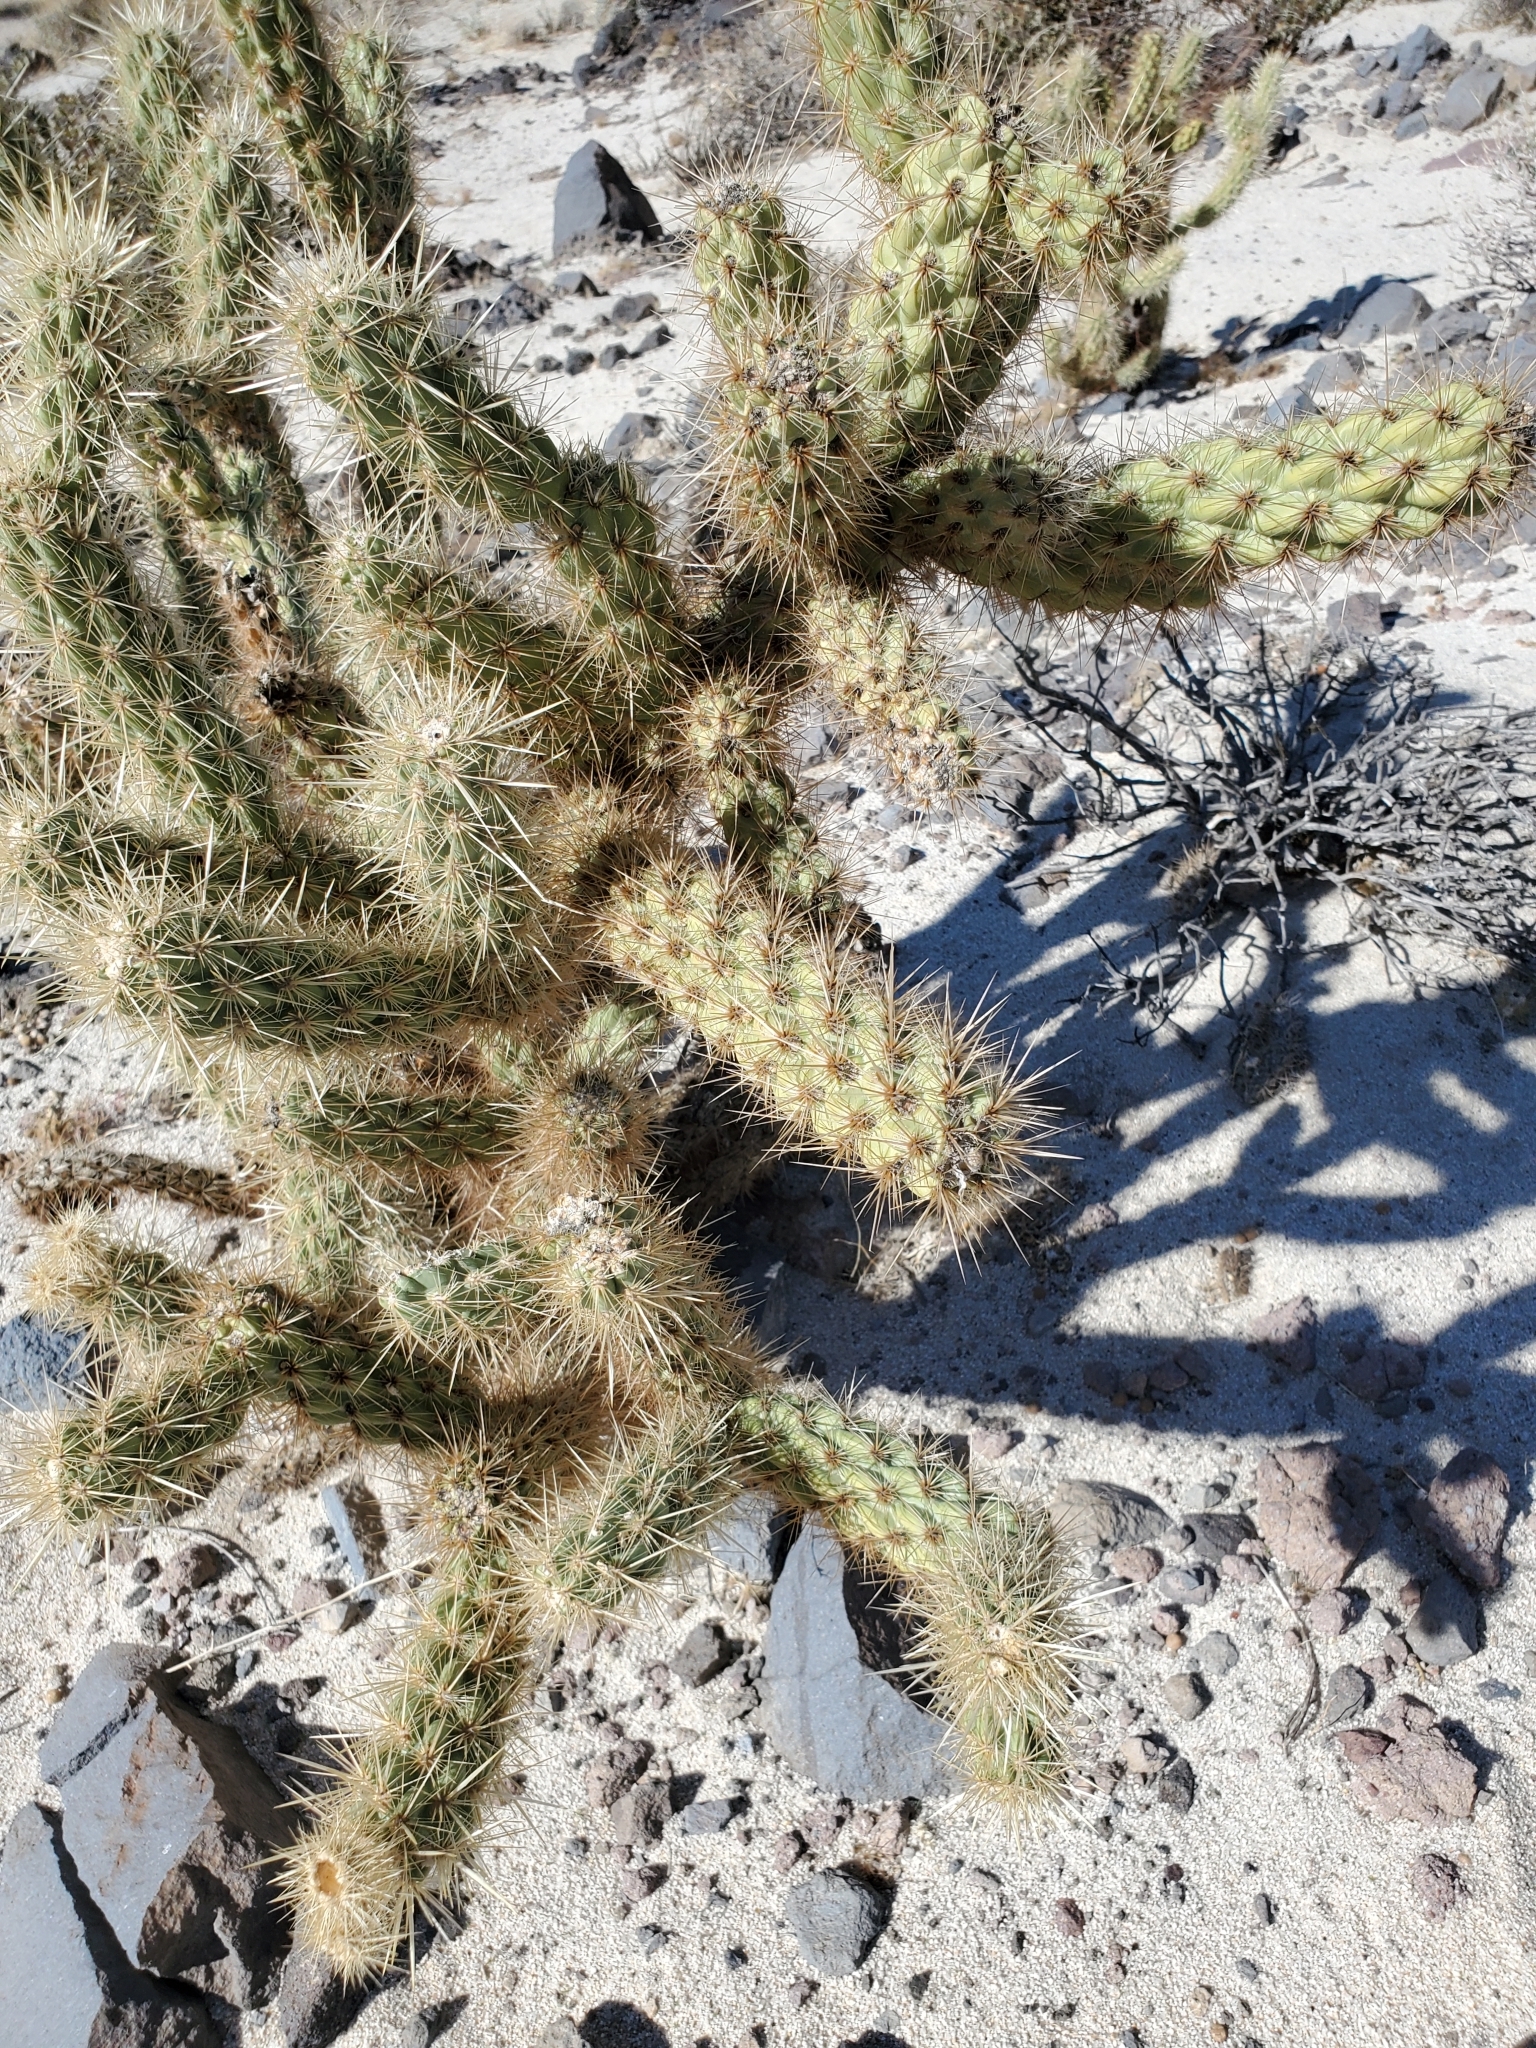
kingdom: Plantae
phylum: Tracheophyta
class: Magnoliopsida
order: Caryophyllales
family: Cactaceae
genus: Cylindropuntia
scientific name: Cylindropuntia ganderi
